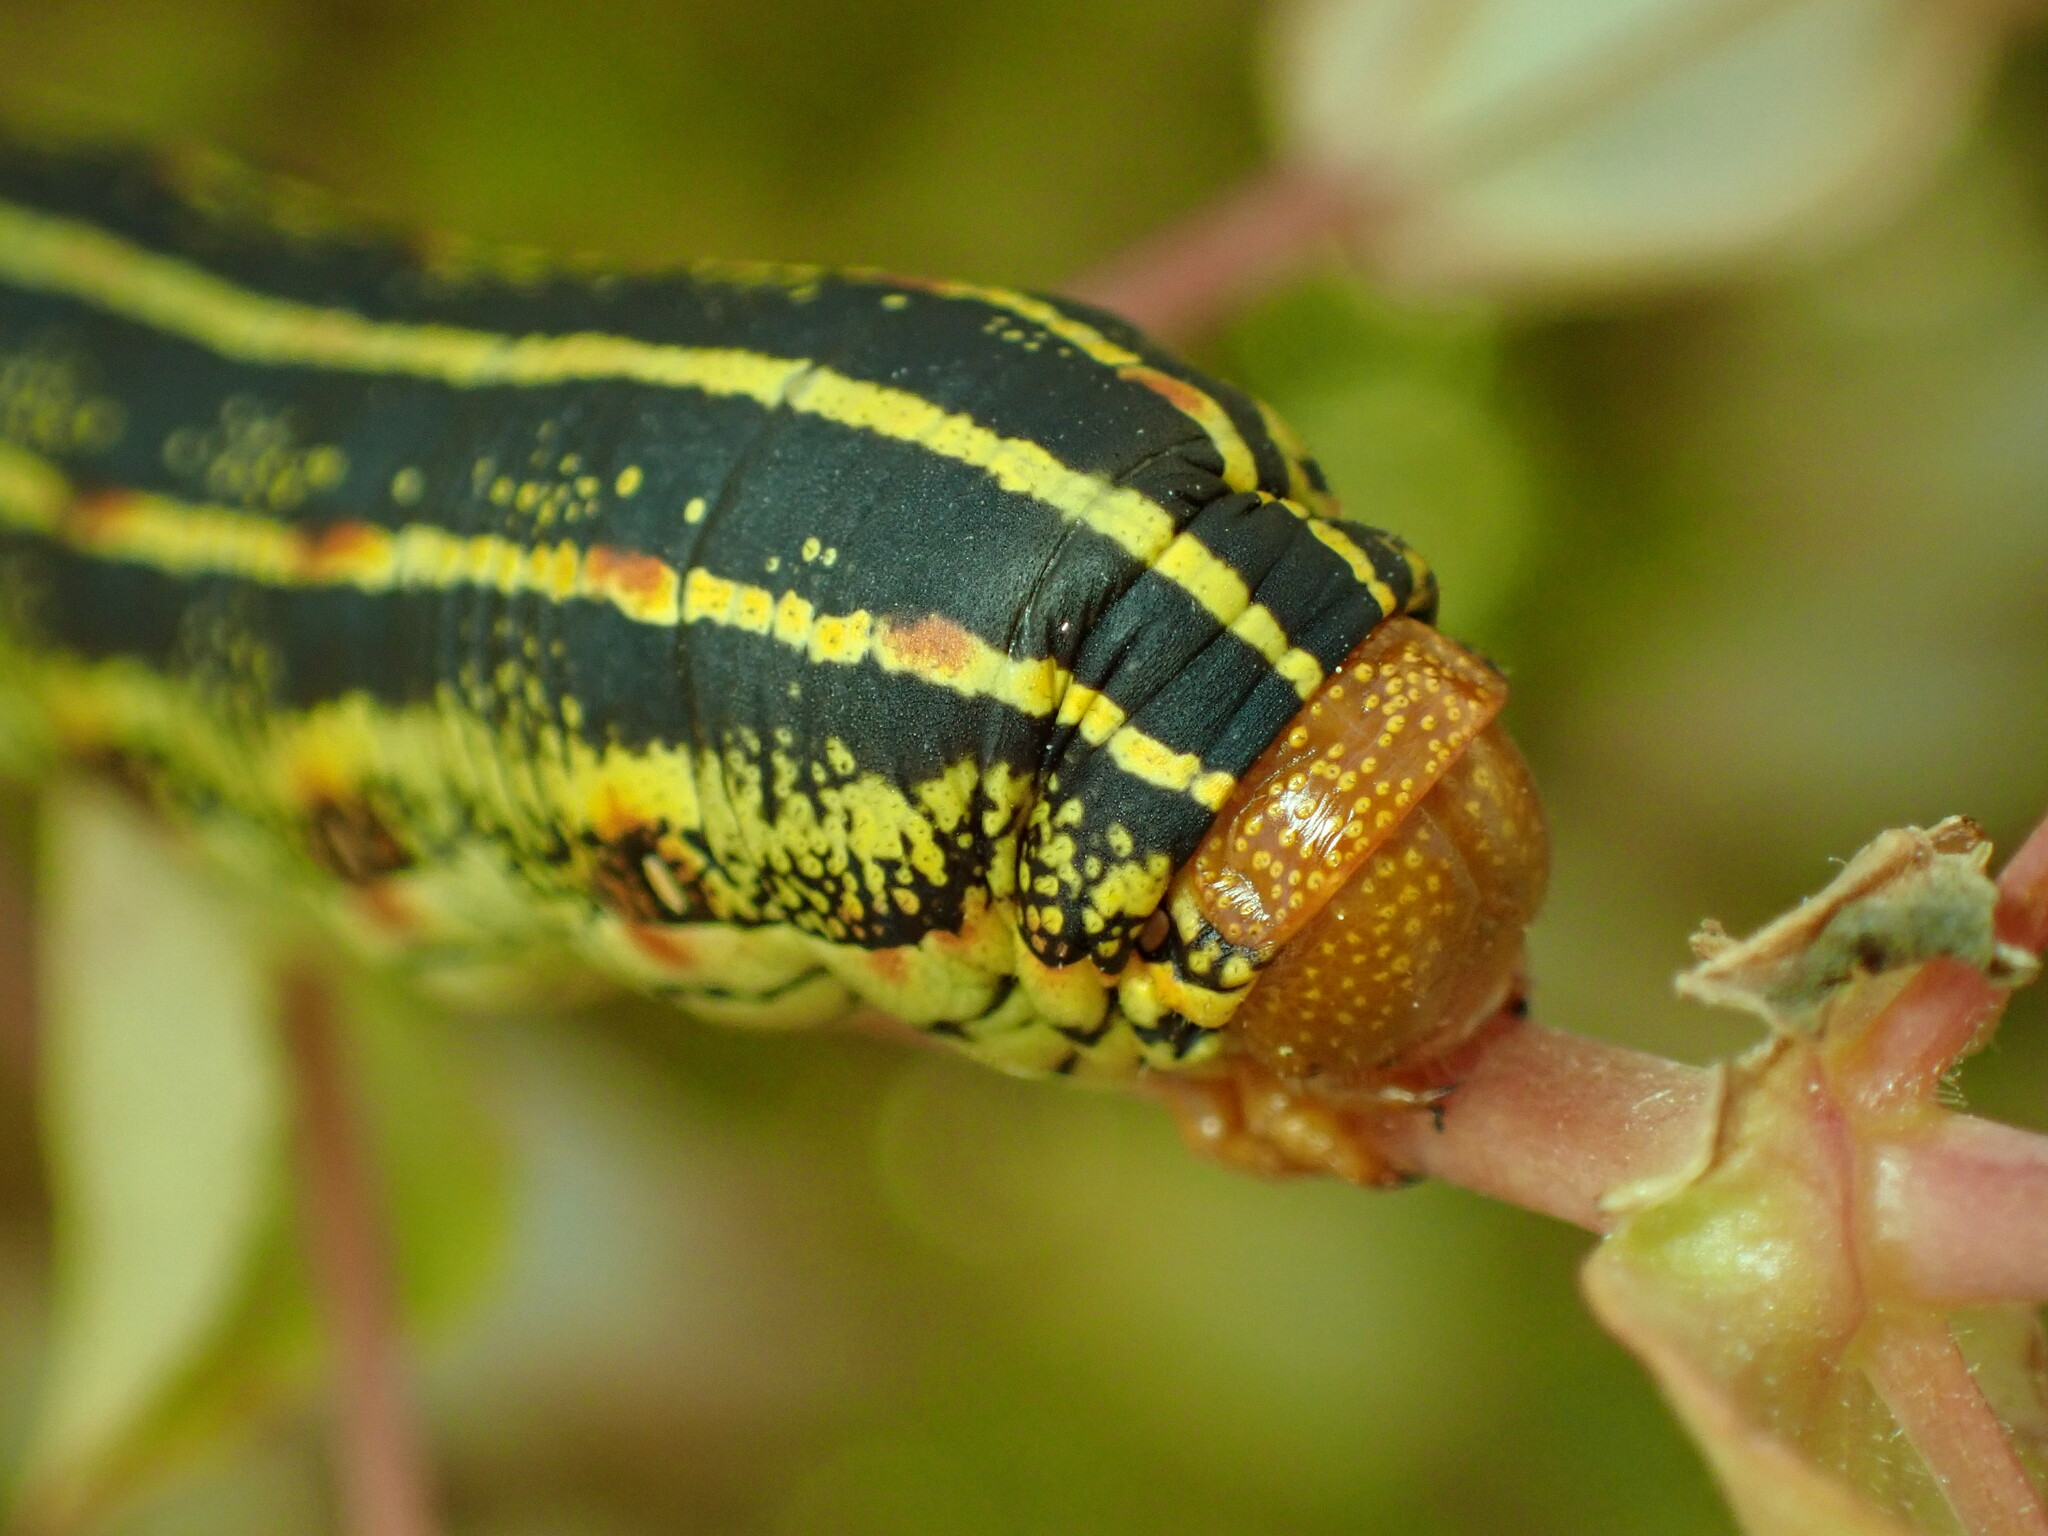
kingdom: Animalia
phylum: Arthropoda
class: Insecta
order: Lepidoptera
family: Sphingidae
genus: Hyles
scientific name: Hyles lineata
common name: White-lined sphinx
